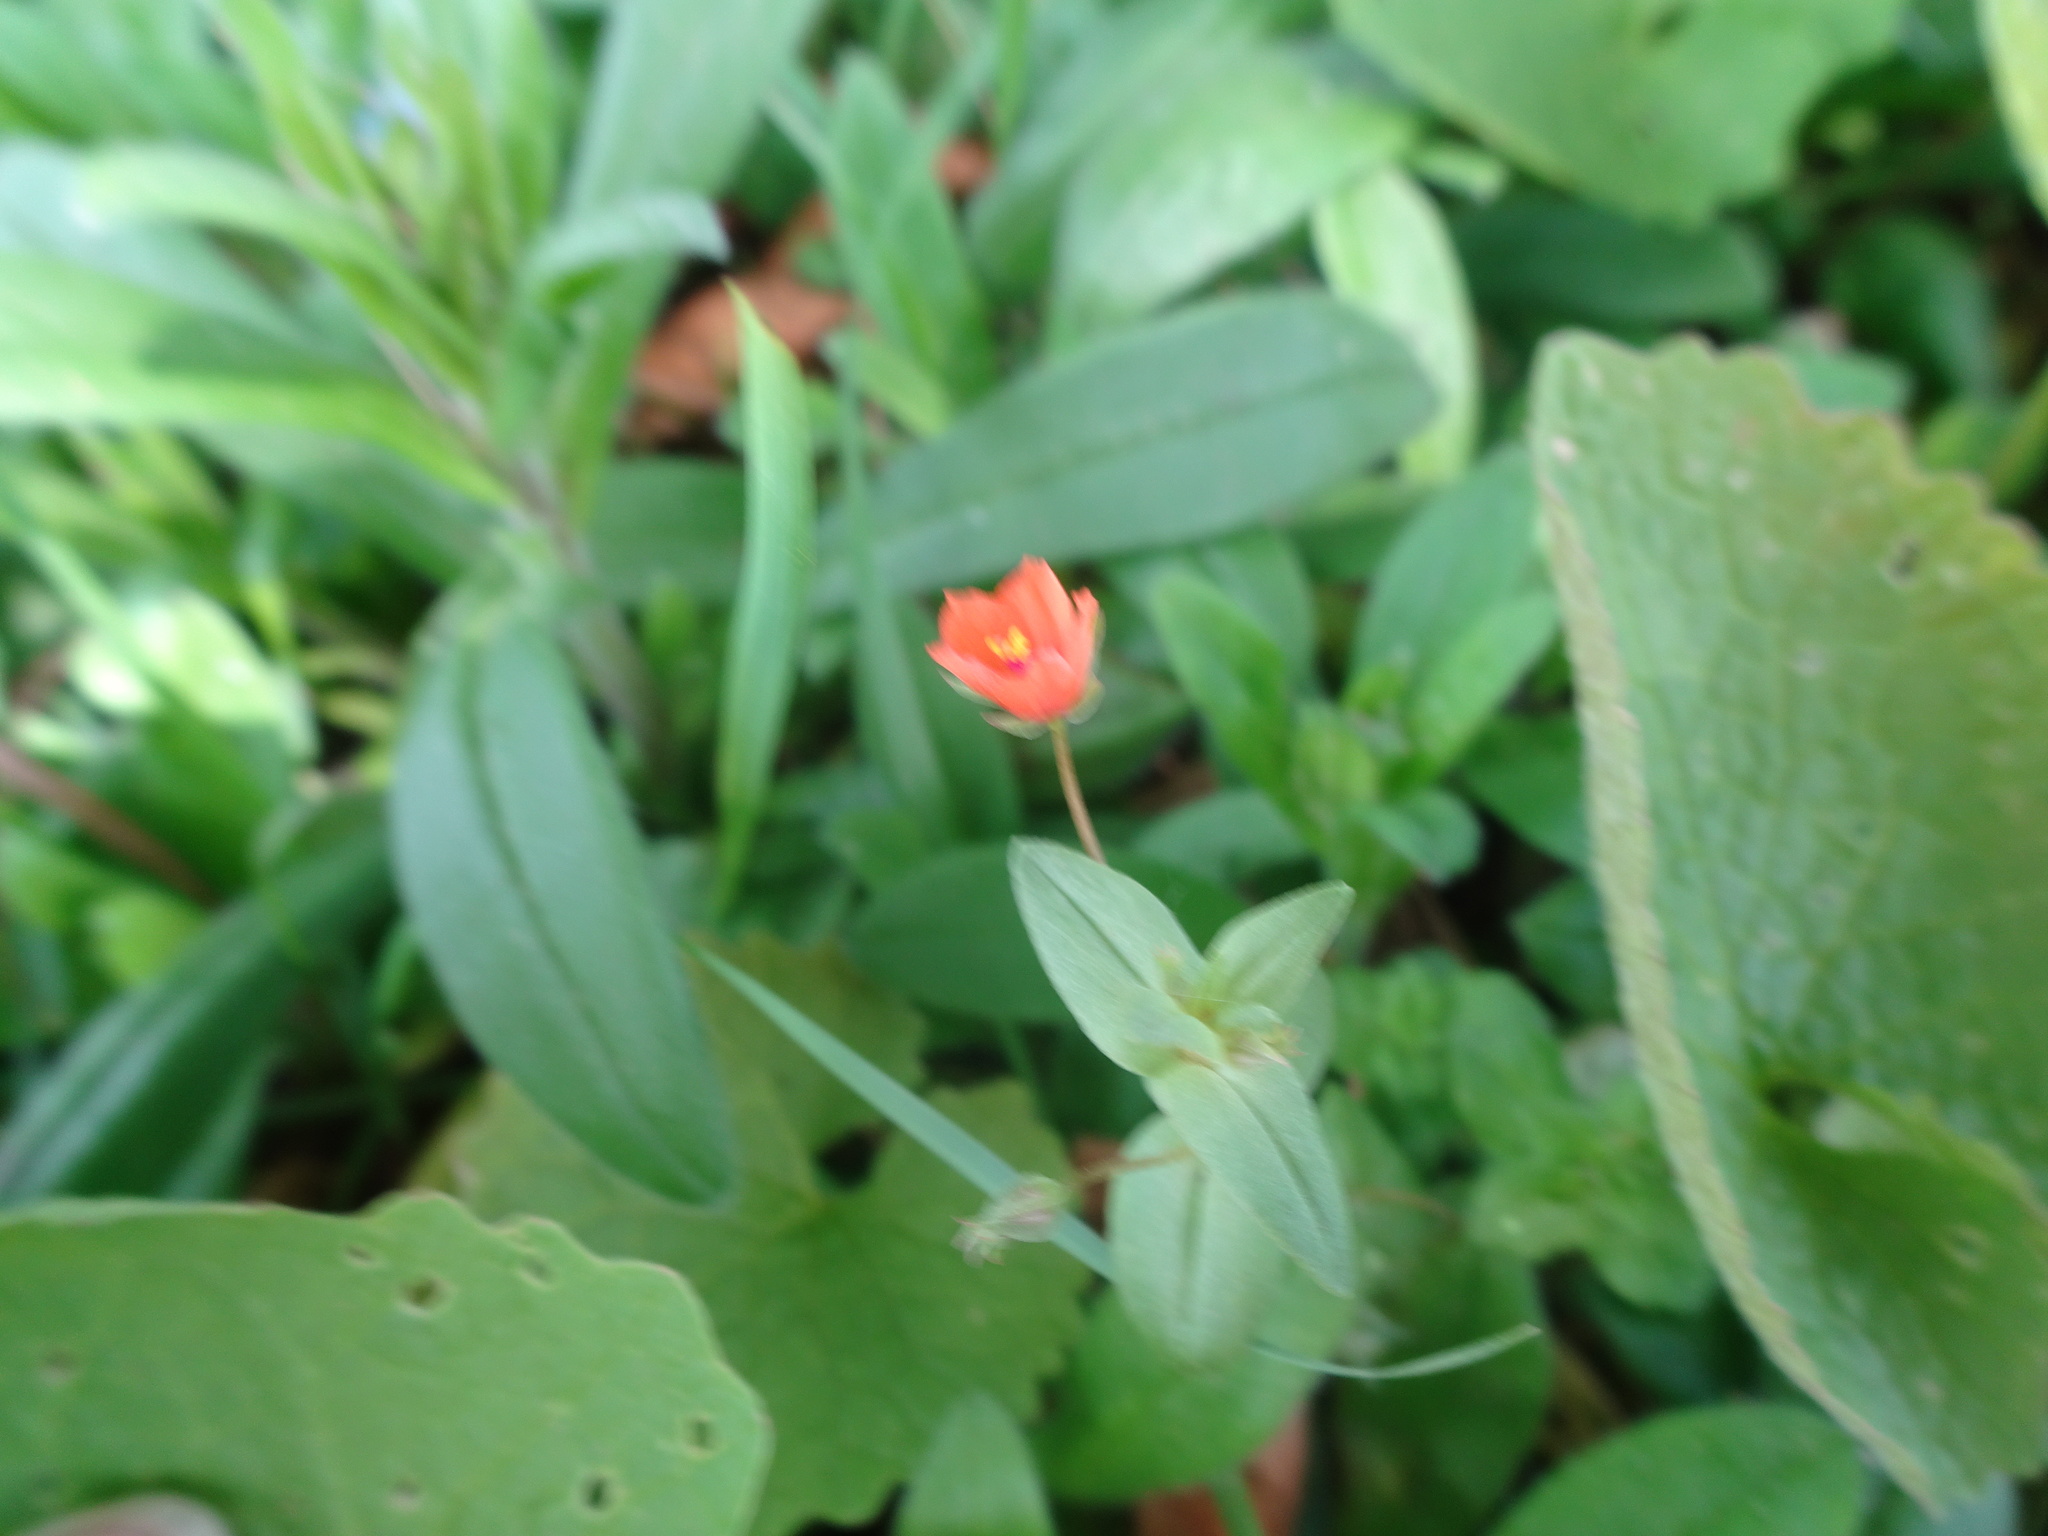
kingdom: Plantae
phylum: Tracheophyta
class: Magnoliopsida
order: Ericales
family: Primulaceae
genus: Lysimachia
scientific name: Lysimachia arvensis
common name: Scarlet pimpernel
